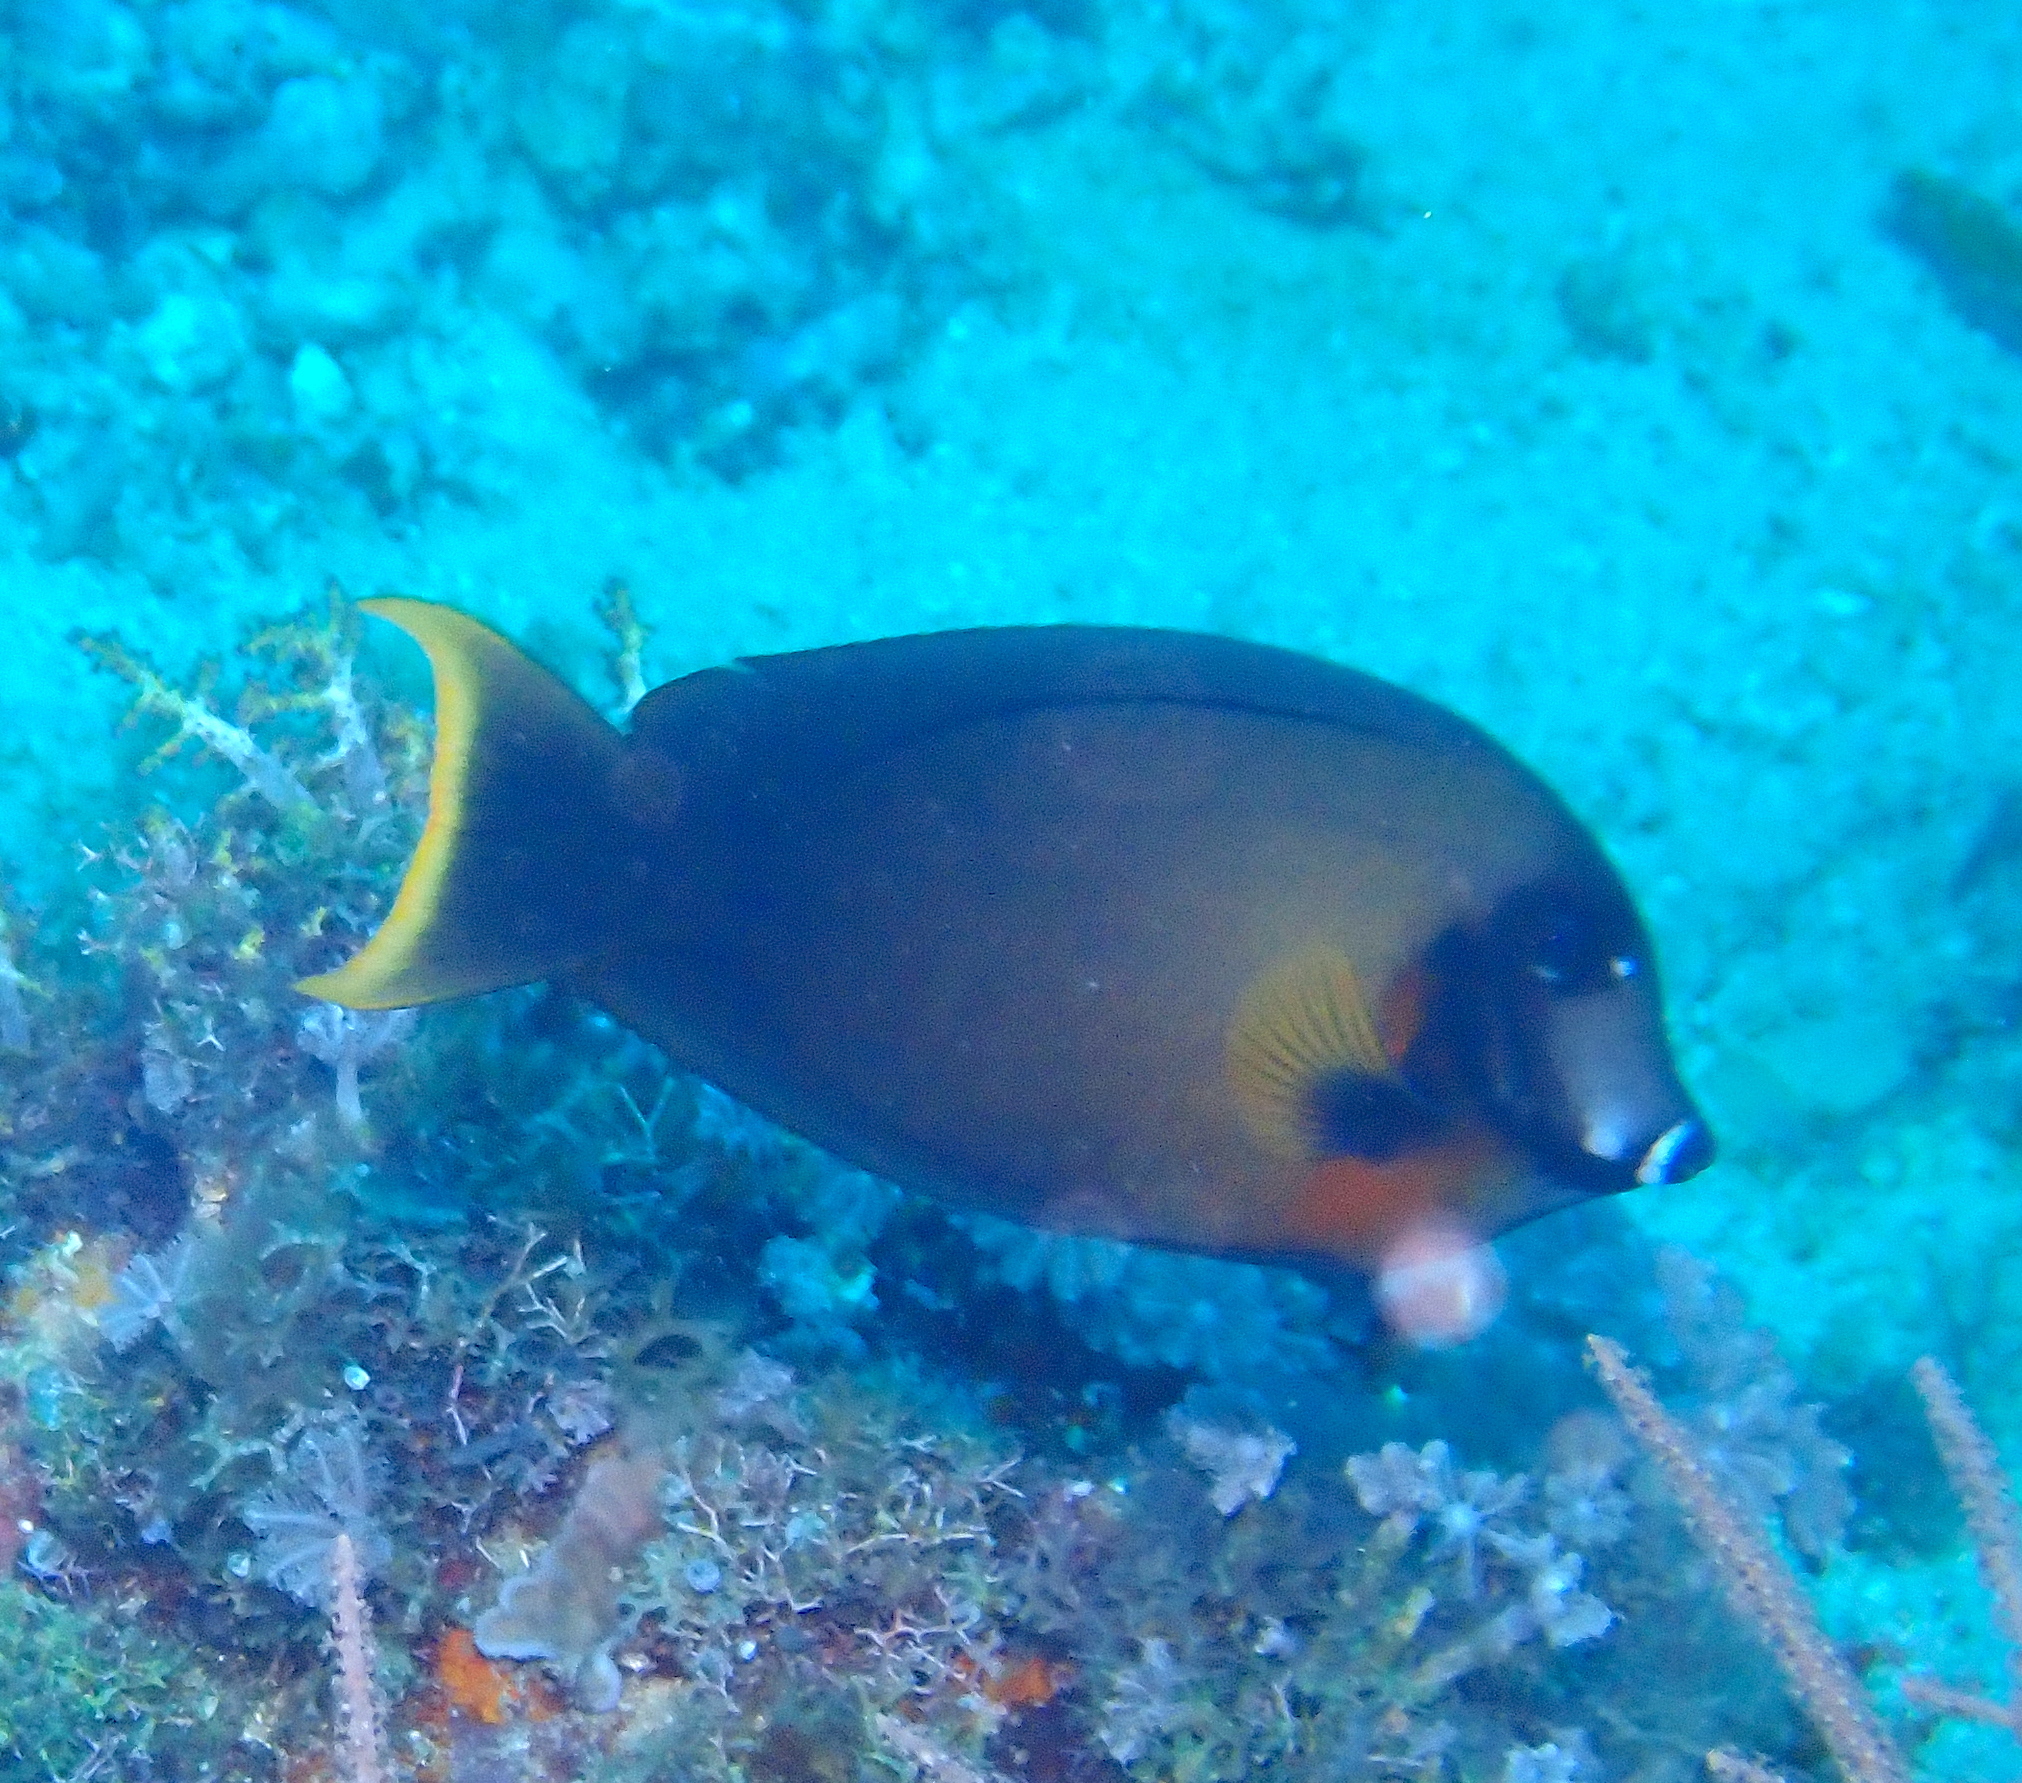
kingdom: Animalia
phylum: Chordata
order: Perciformes
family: Acanthuridae
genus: Acanthurus
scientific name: Acanthurus pyroferus
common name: Chocolate surgeonfish
